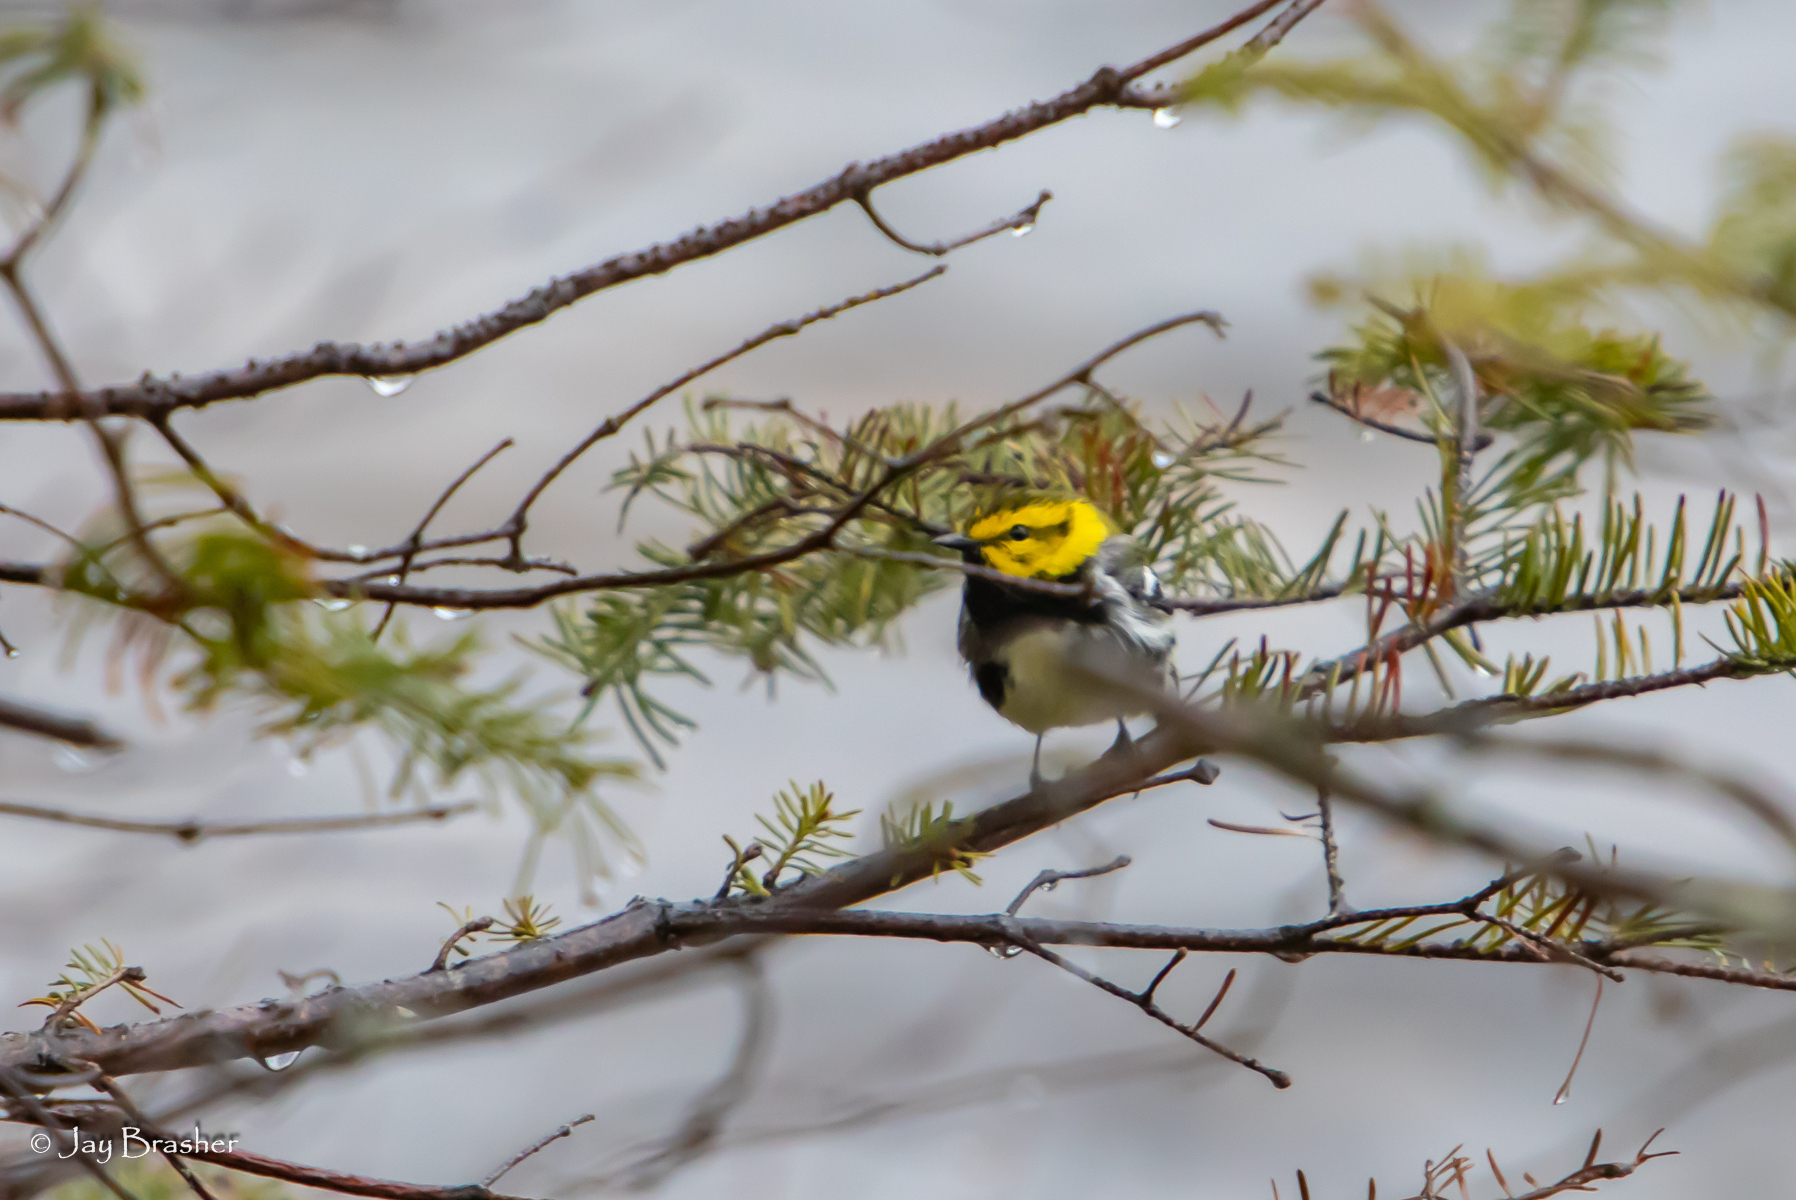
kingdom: Animalia
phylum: Chordata
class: Aves
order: Passeriformes
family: Parulidae
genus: Setophaga
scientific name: Setophaga virens
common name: Black-throated green warbler
